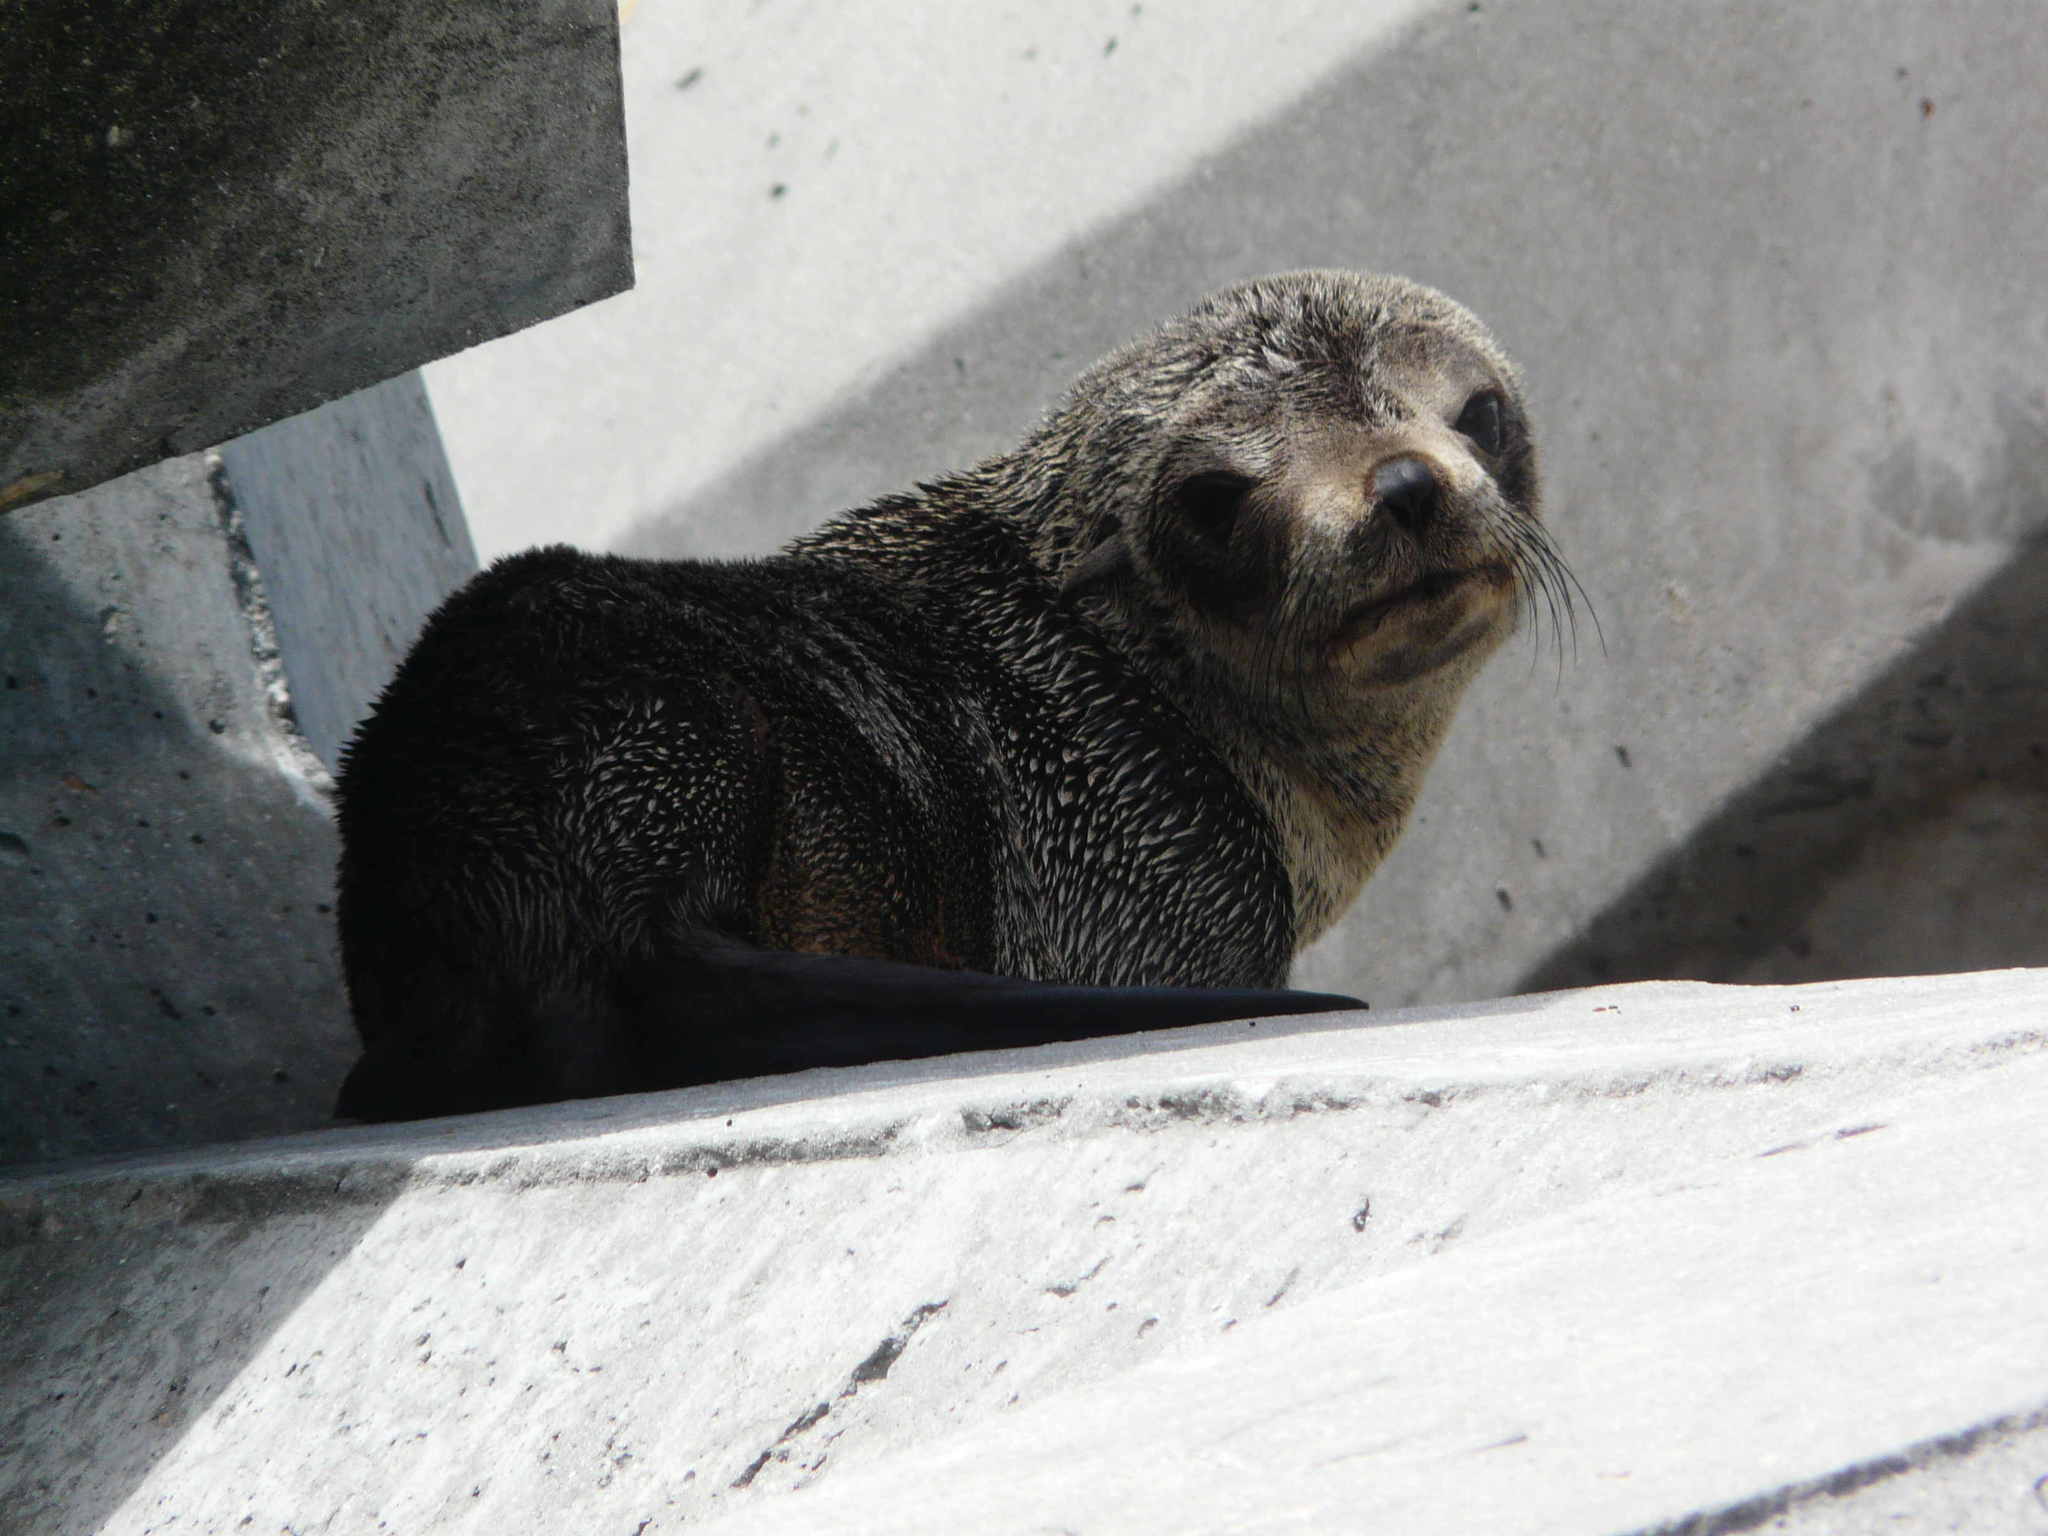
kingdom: Animalia
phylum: Chordata
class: Mammalia
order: Carnivora
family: Otariidae
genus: Arctocephalus
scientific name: Arctocephalus pusillus
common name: Brown fur seal
